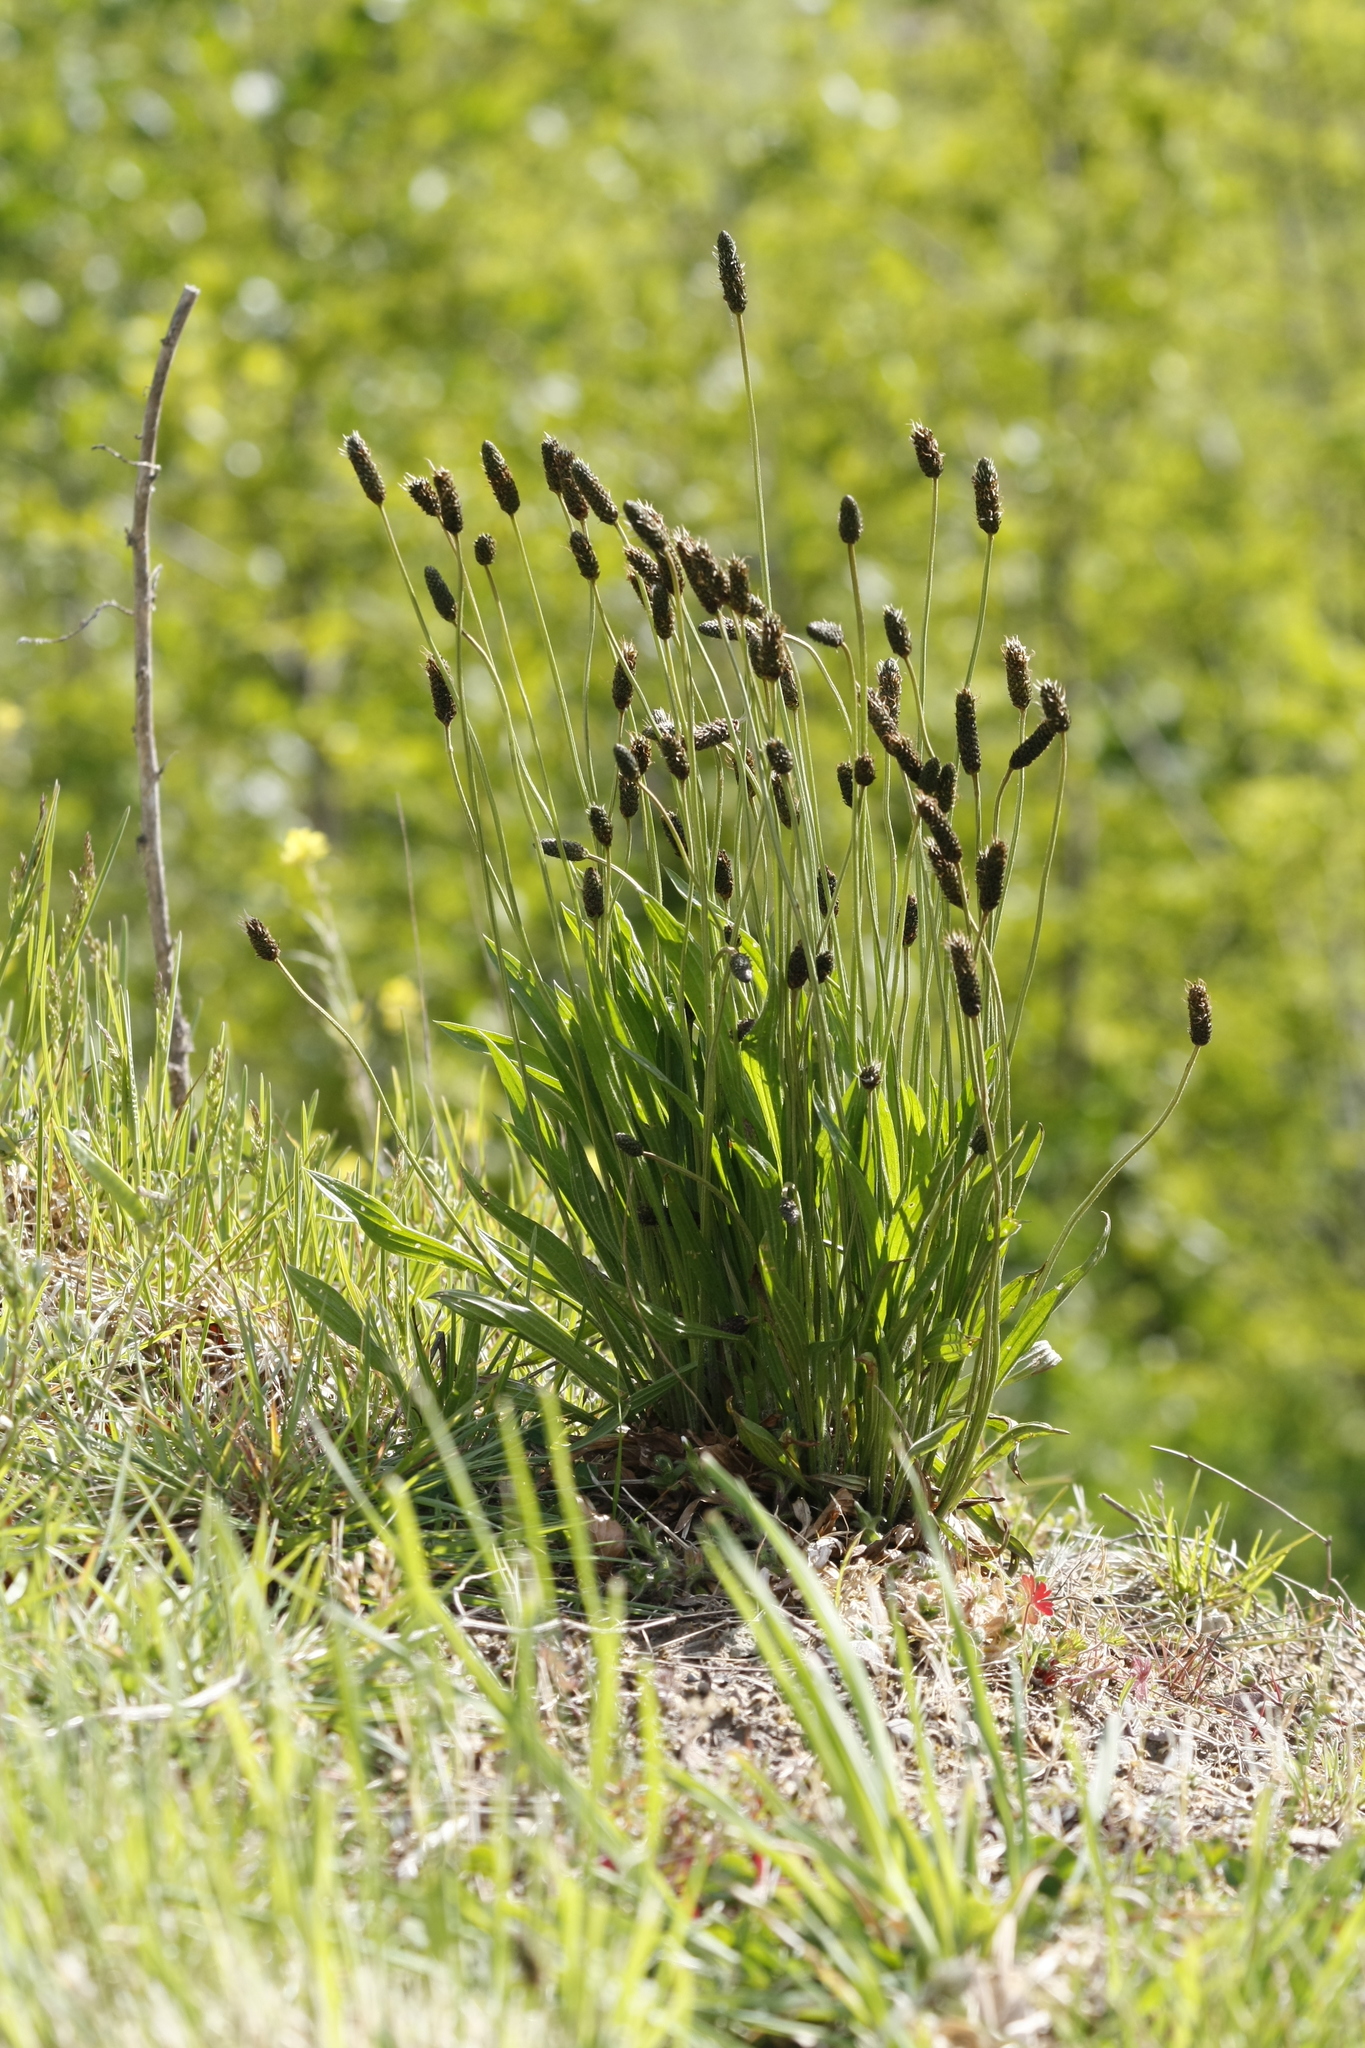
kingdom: Plantae
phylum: Tracheophyta
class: Magnoliopsida
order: Lamiales
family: Plantaginaceae
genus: Plantago
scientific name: Plantago lanceolata
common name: Ribwort plantain
